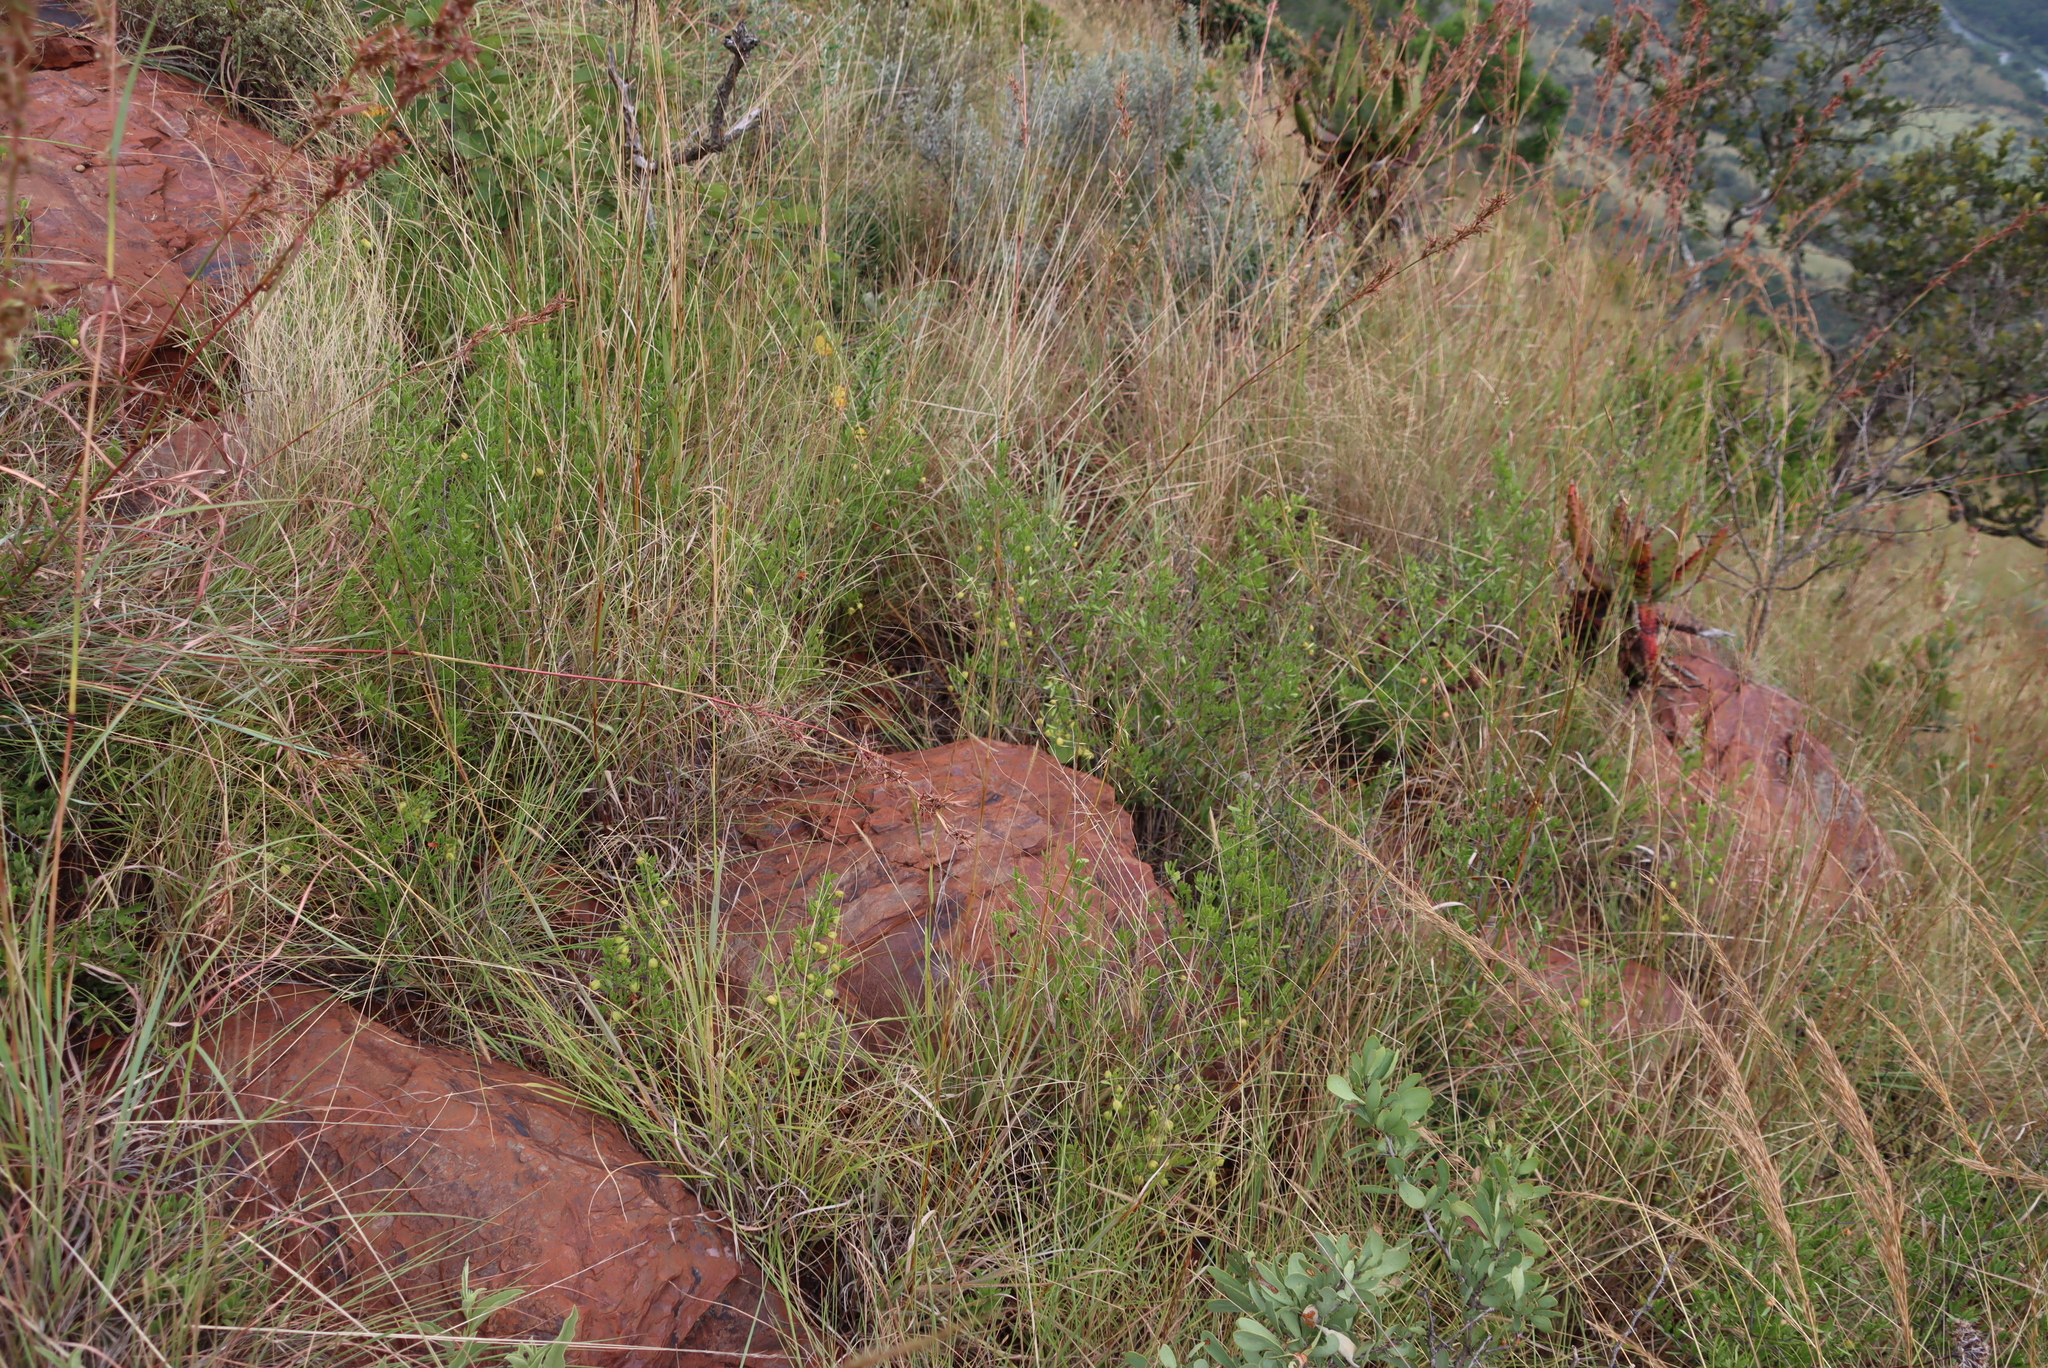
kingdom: Plantae
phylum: Tracheophyta
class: Magnoliopsida
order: Celastrales
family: Celastraceae
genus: Gymnosporia
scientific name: Gymnosporia tenuispina
